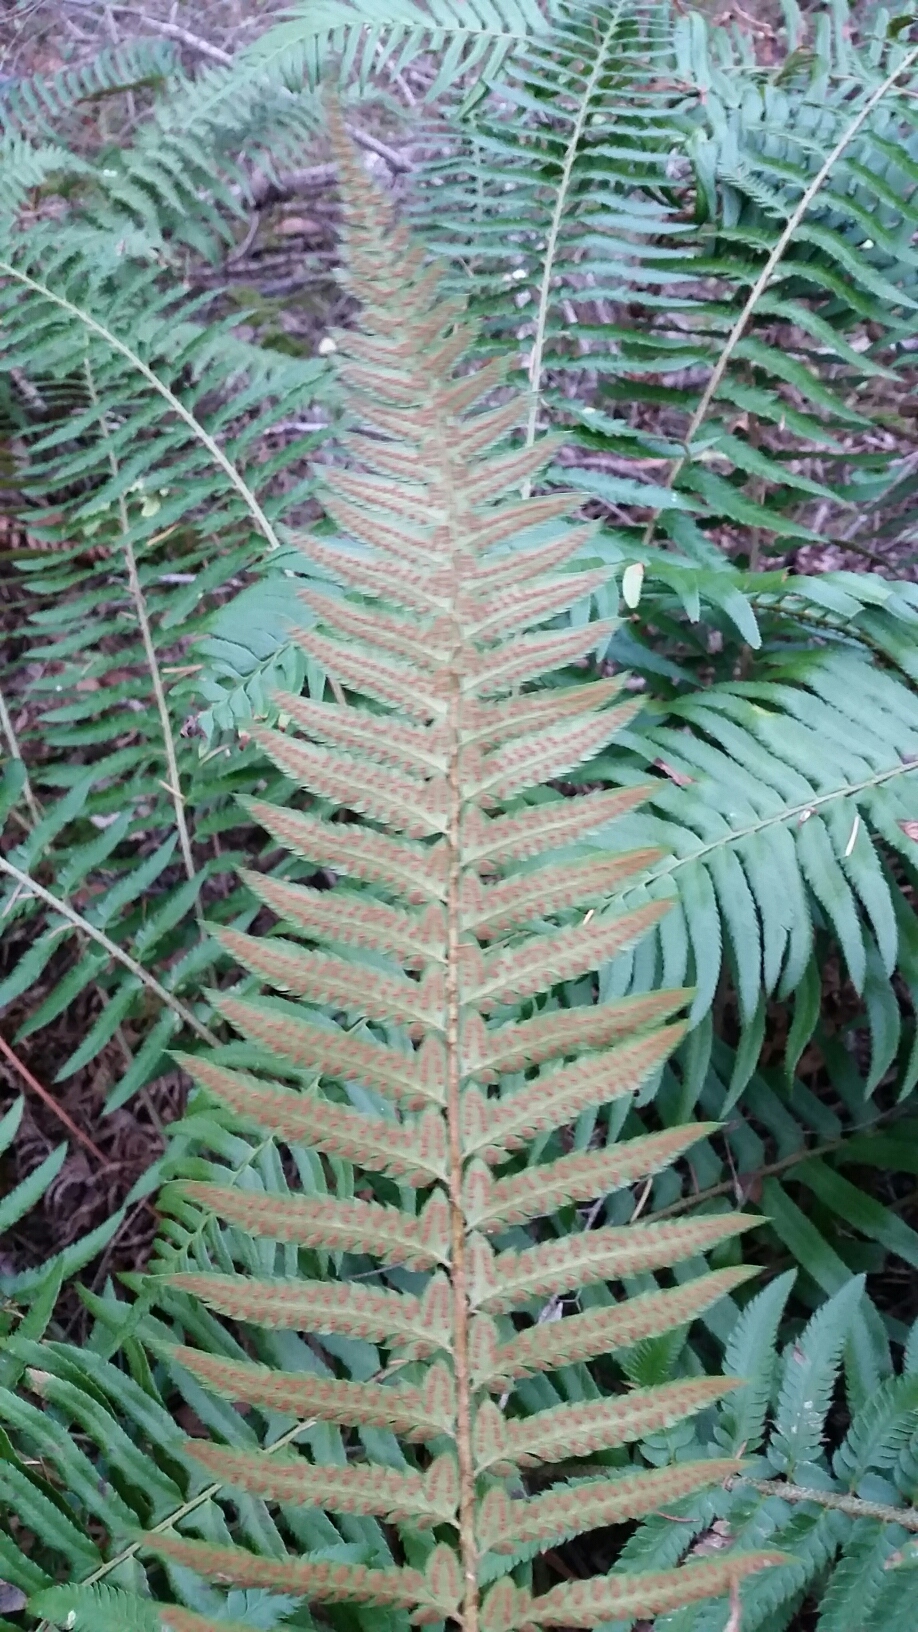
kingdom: Plantae
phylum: Tracheophyta
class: Polypodiopsida
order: Polypodiales
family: Dryopteridaceae
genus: Polystichum
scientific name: Polystichum munitum
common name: Western sword-fern
